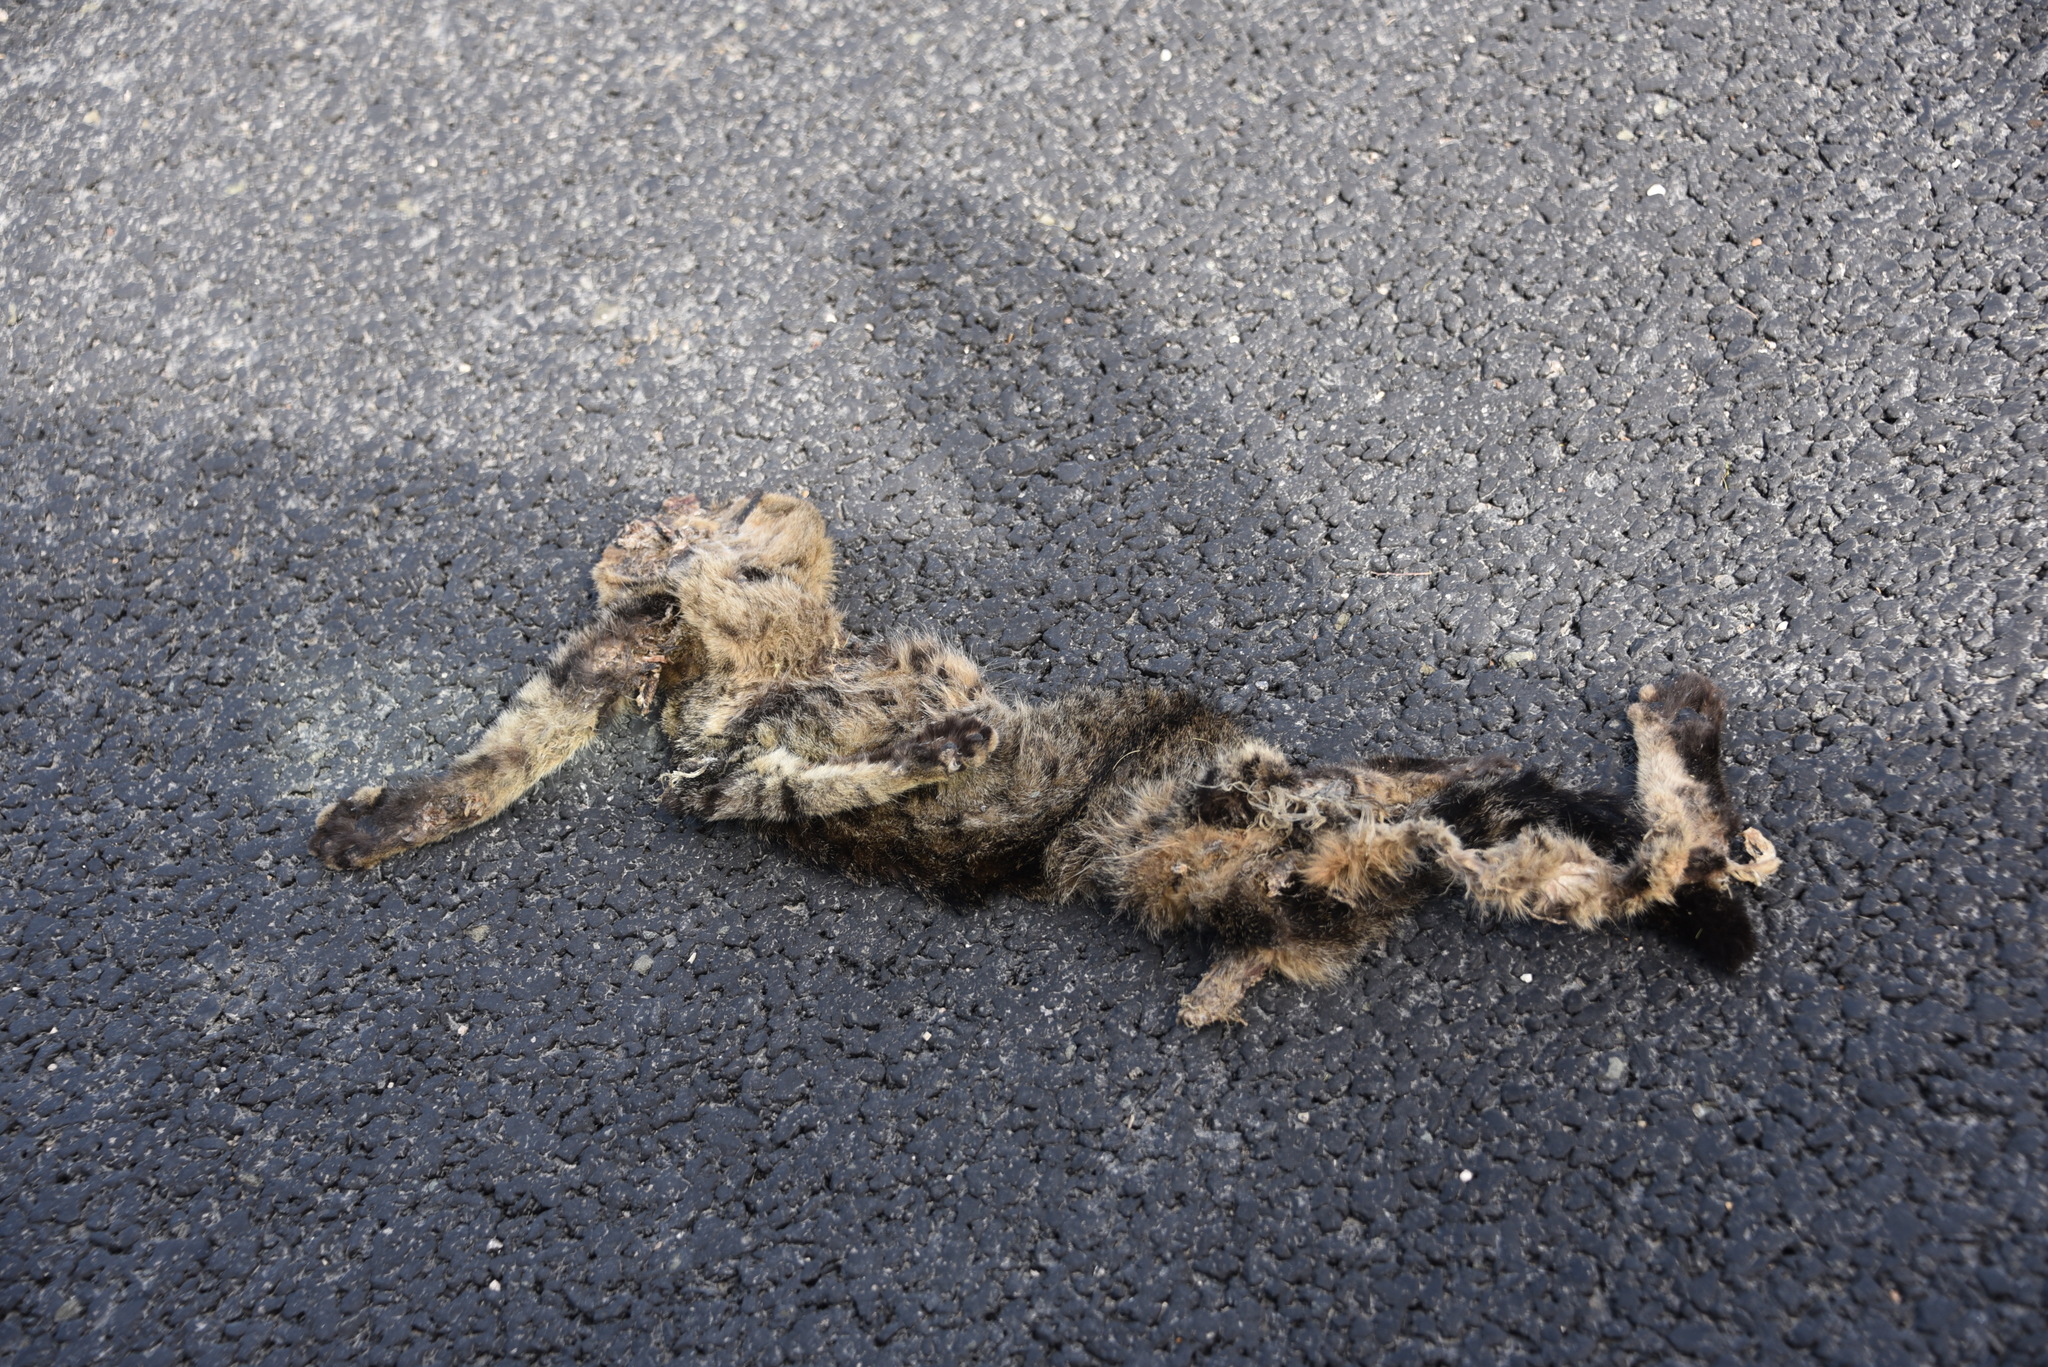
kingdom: Animalia
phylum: Chordata
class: Mammalia
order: Carnivora
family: Felidae
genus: Lynx
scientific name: Lynx rufus
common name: Bobcat
